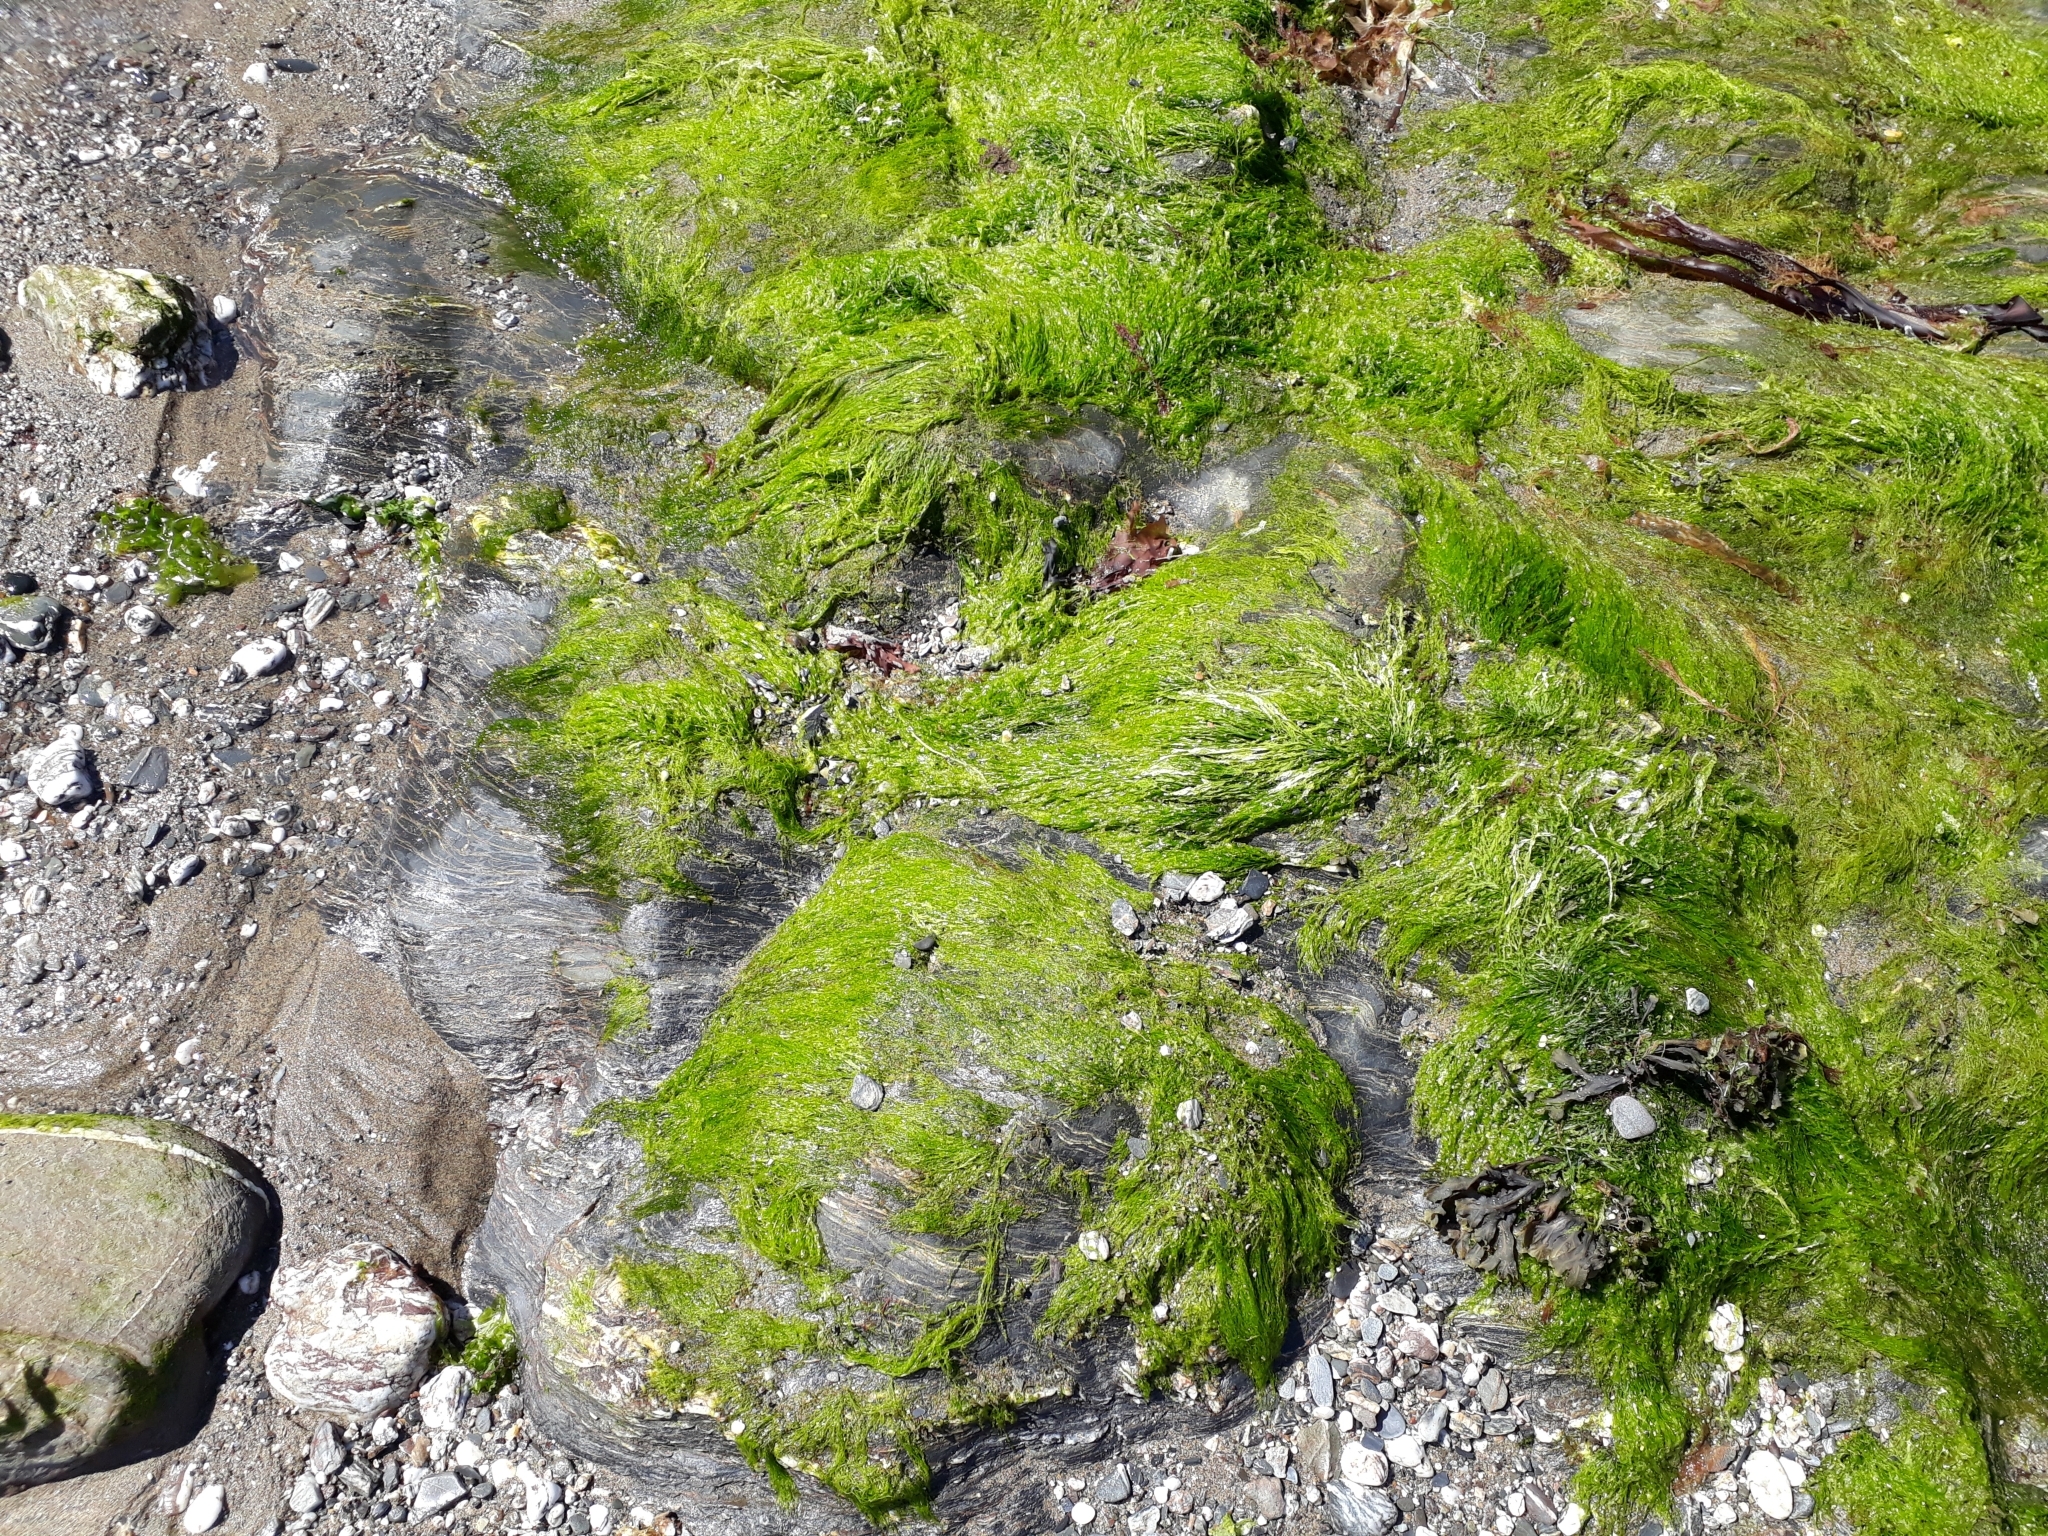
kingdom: Plantae
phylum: Chlorophyta
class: Ulvophyceae
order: Ulvales
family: Ulvaceae
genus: Ulva
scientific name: Ulva intestinalis
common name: Gut weed
